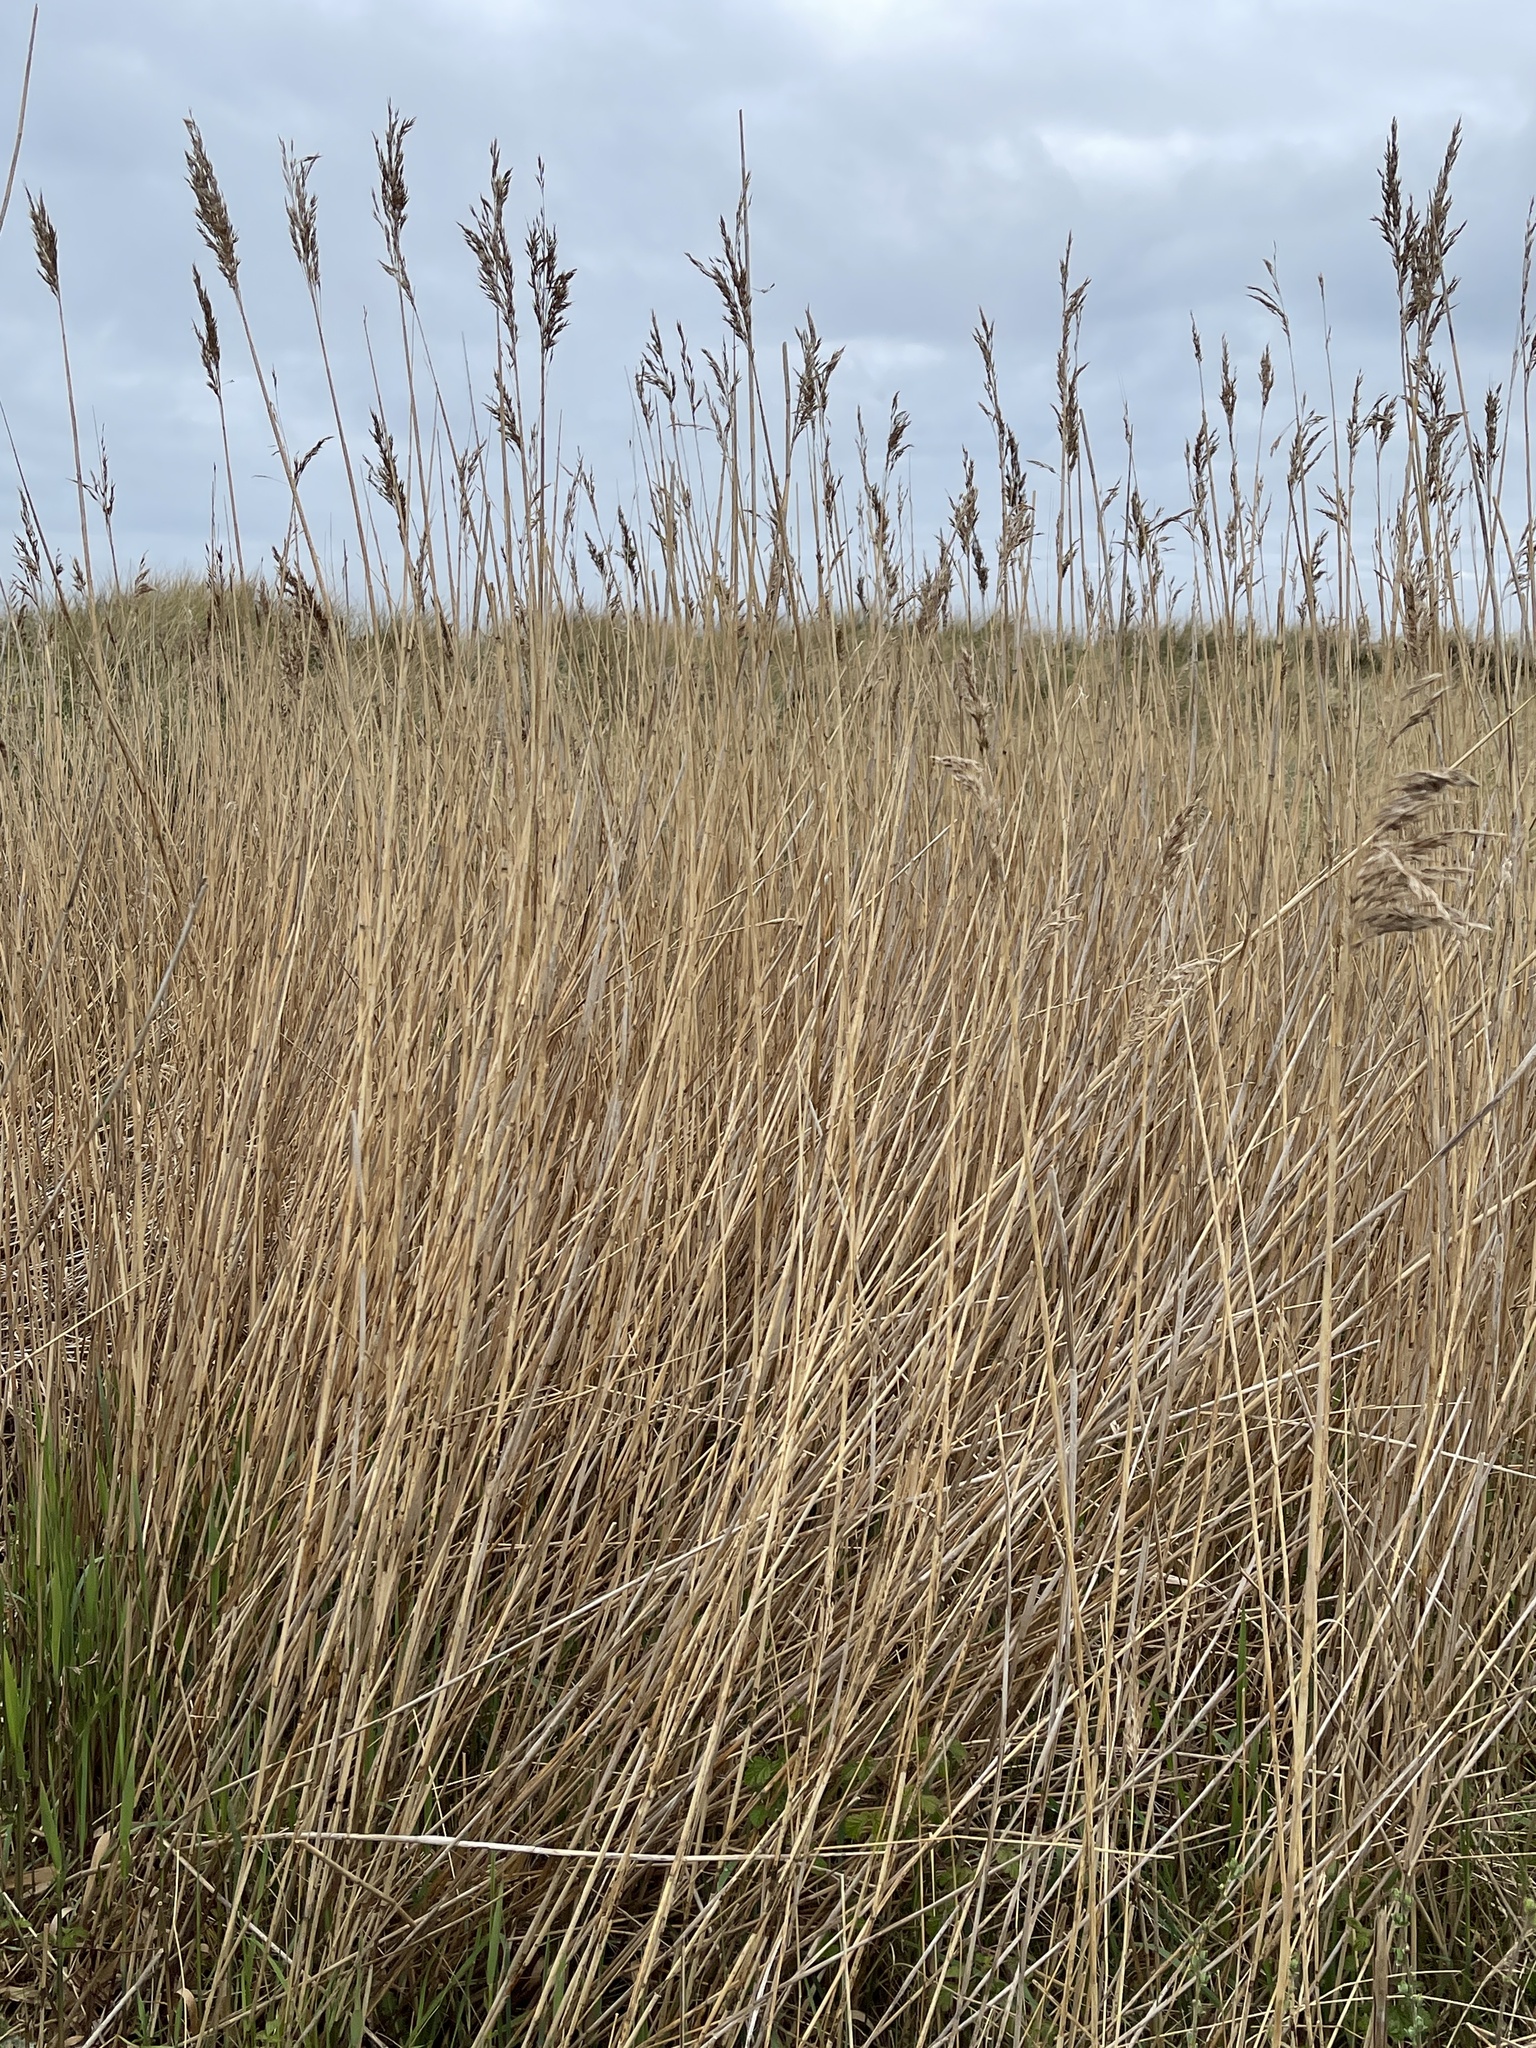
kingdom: Plantae
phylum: Tracheophyta
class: Liliopsida
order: Poales
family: Poaceae
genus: Phragmites
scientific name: Phragmites australis
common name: Common reed
